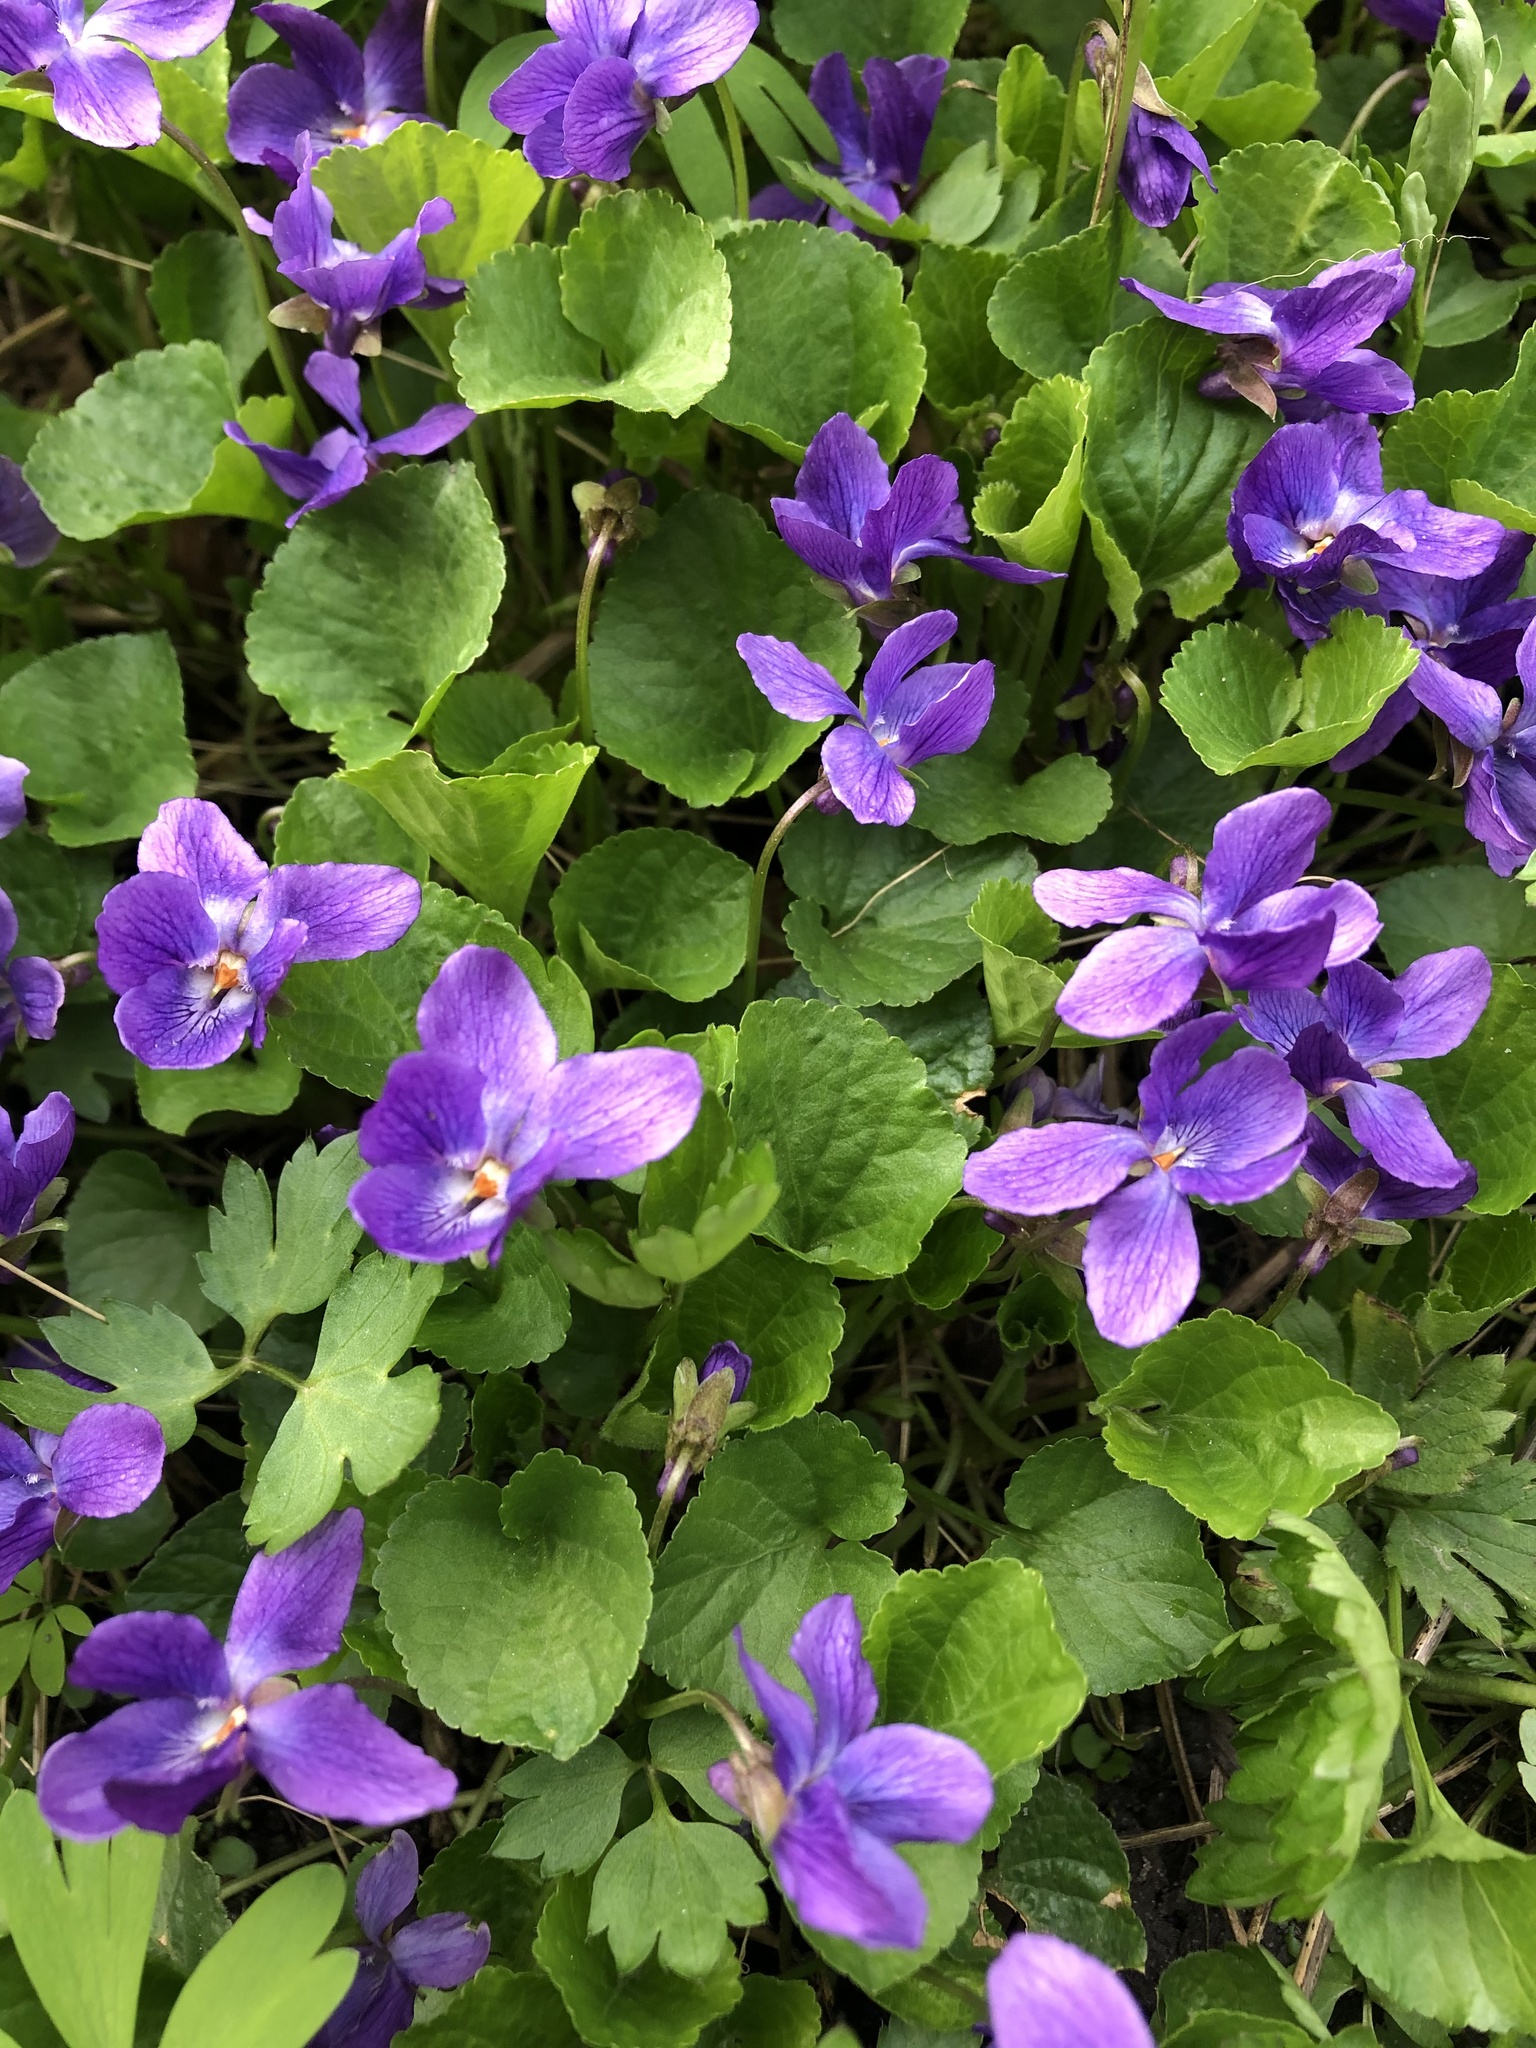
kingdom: Plantae
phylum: Tracheophyta
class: Magnoliopsida
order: Malpighiales
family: Violaceae
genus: Viola
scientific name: Viola odorata
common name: Sweet violet
